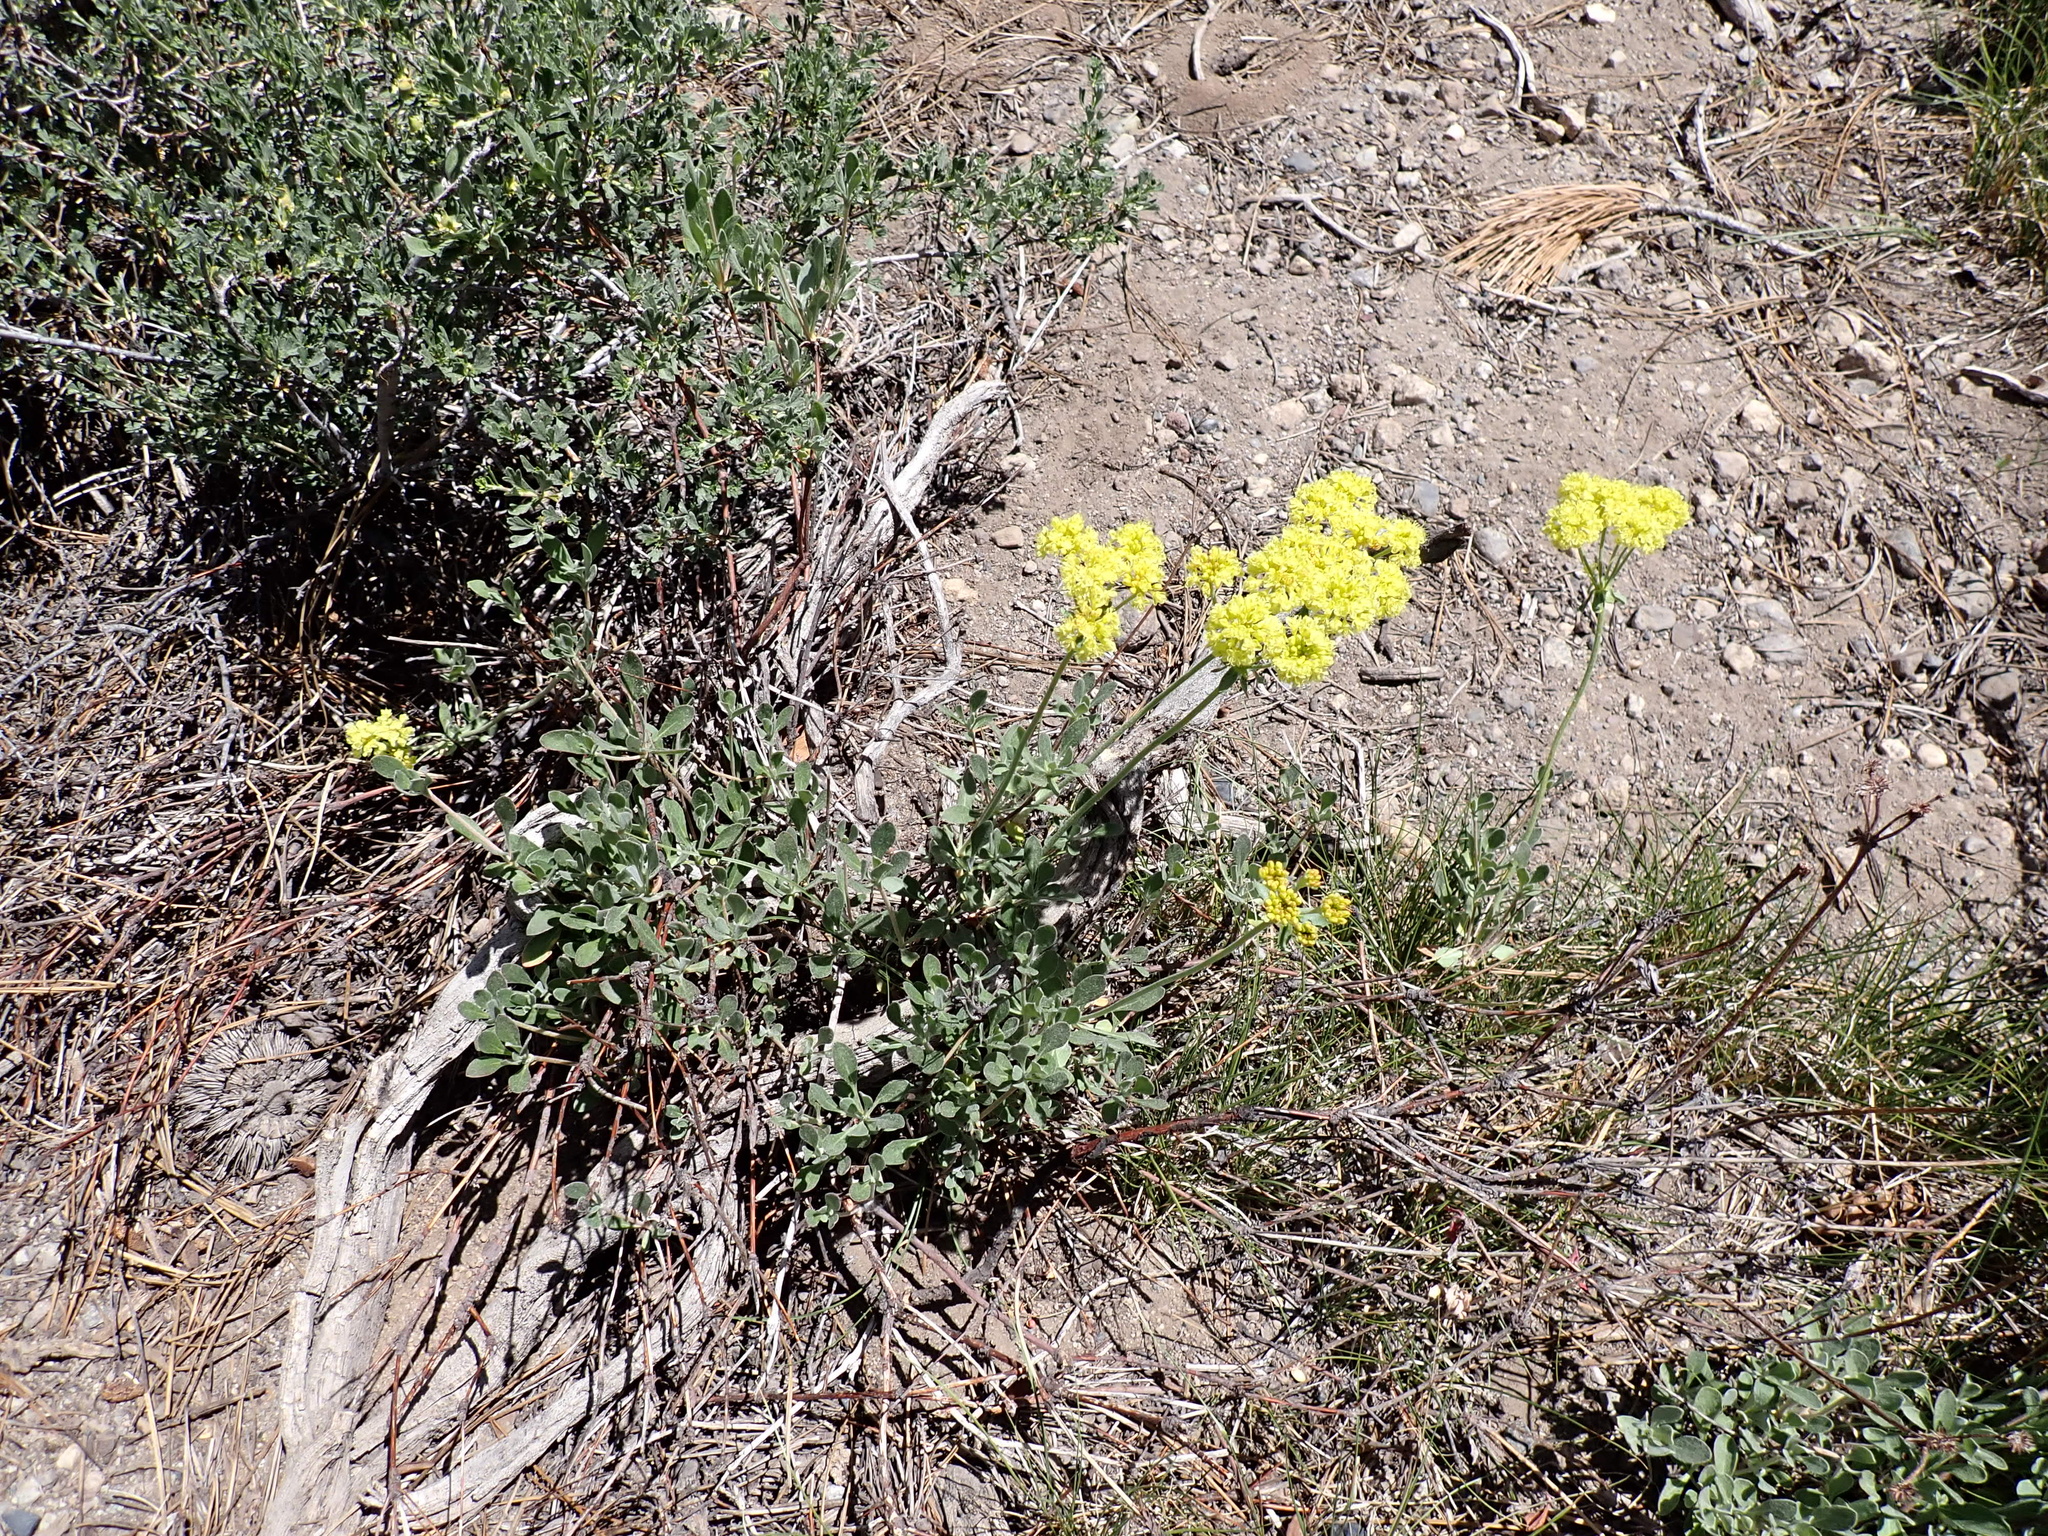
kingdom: Plantae
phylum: Tracheophyta
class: Magnoliopsida
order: Caryophyllales
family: Polygonaceae
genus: Eriogonum
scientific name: Eriogonum umbellatum
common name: Sulfur-buckwheat
